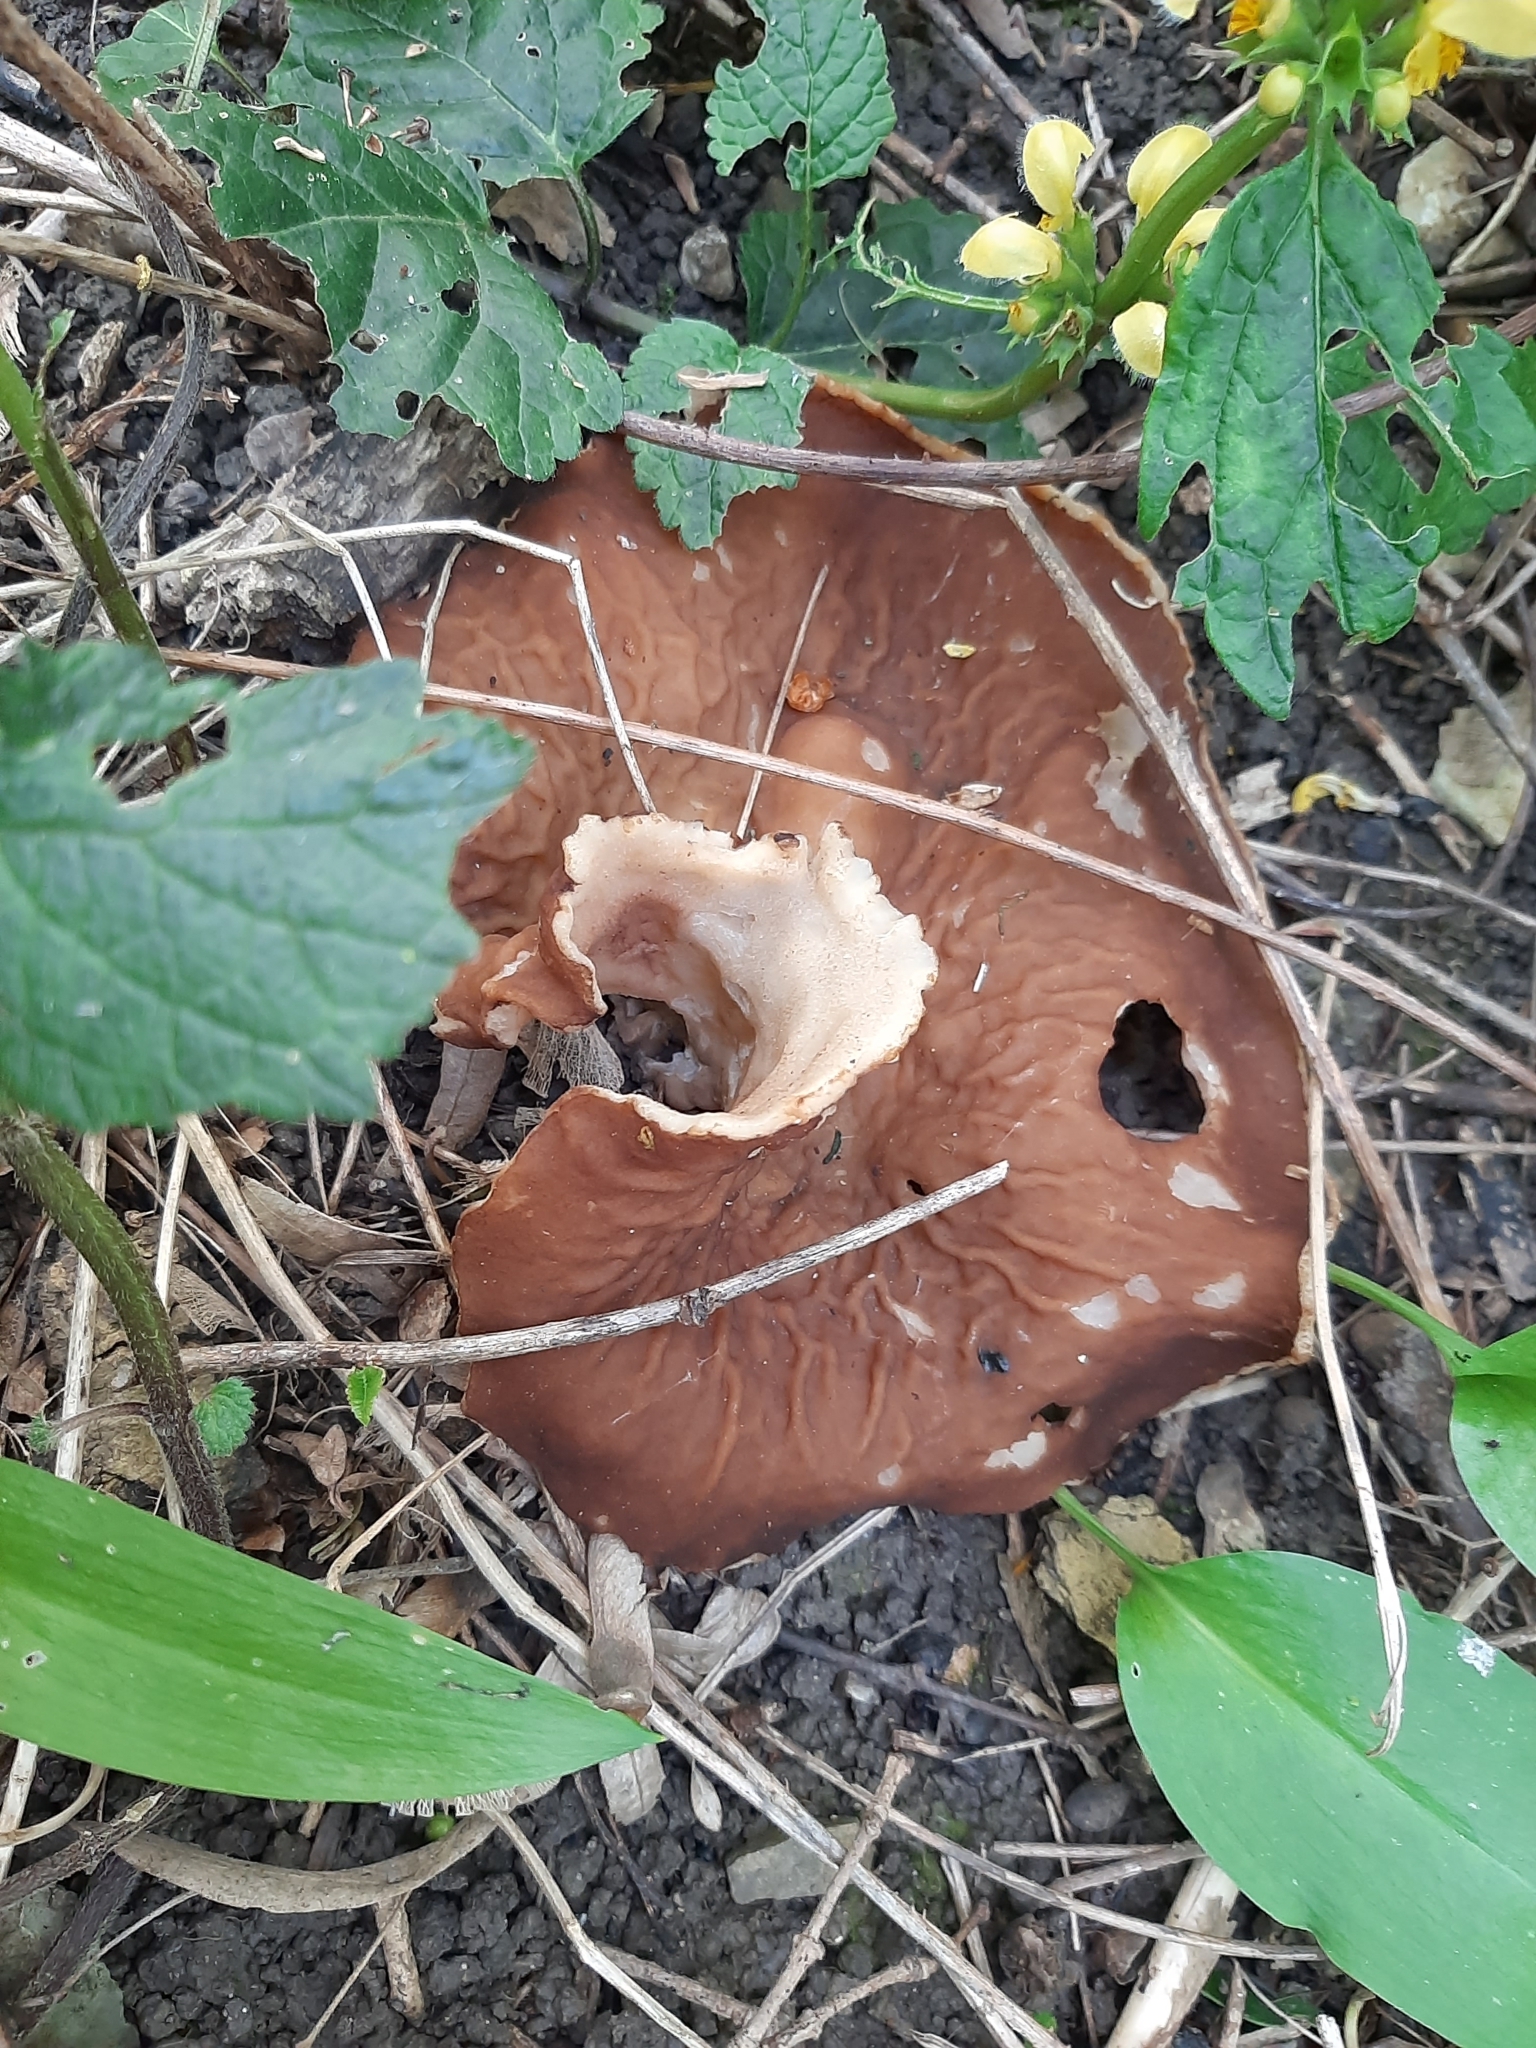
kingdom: Fungi
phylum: Ascomycota
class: Pezizomycetes
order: Pezizales
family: Morchellaceae
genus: Disciotis
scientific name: Disciotis venosa
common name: Bleach cup
